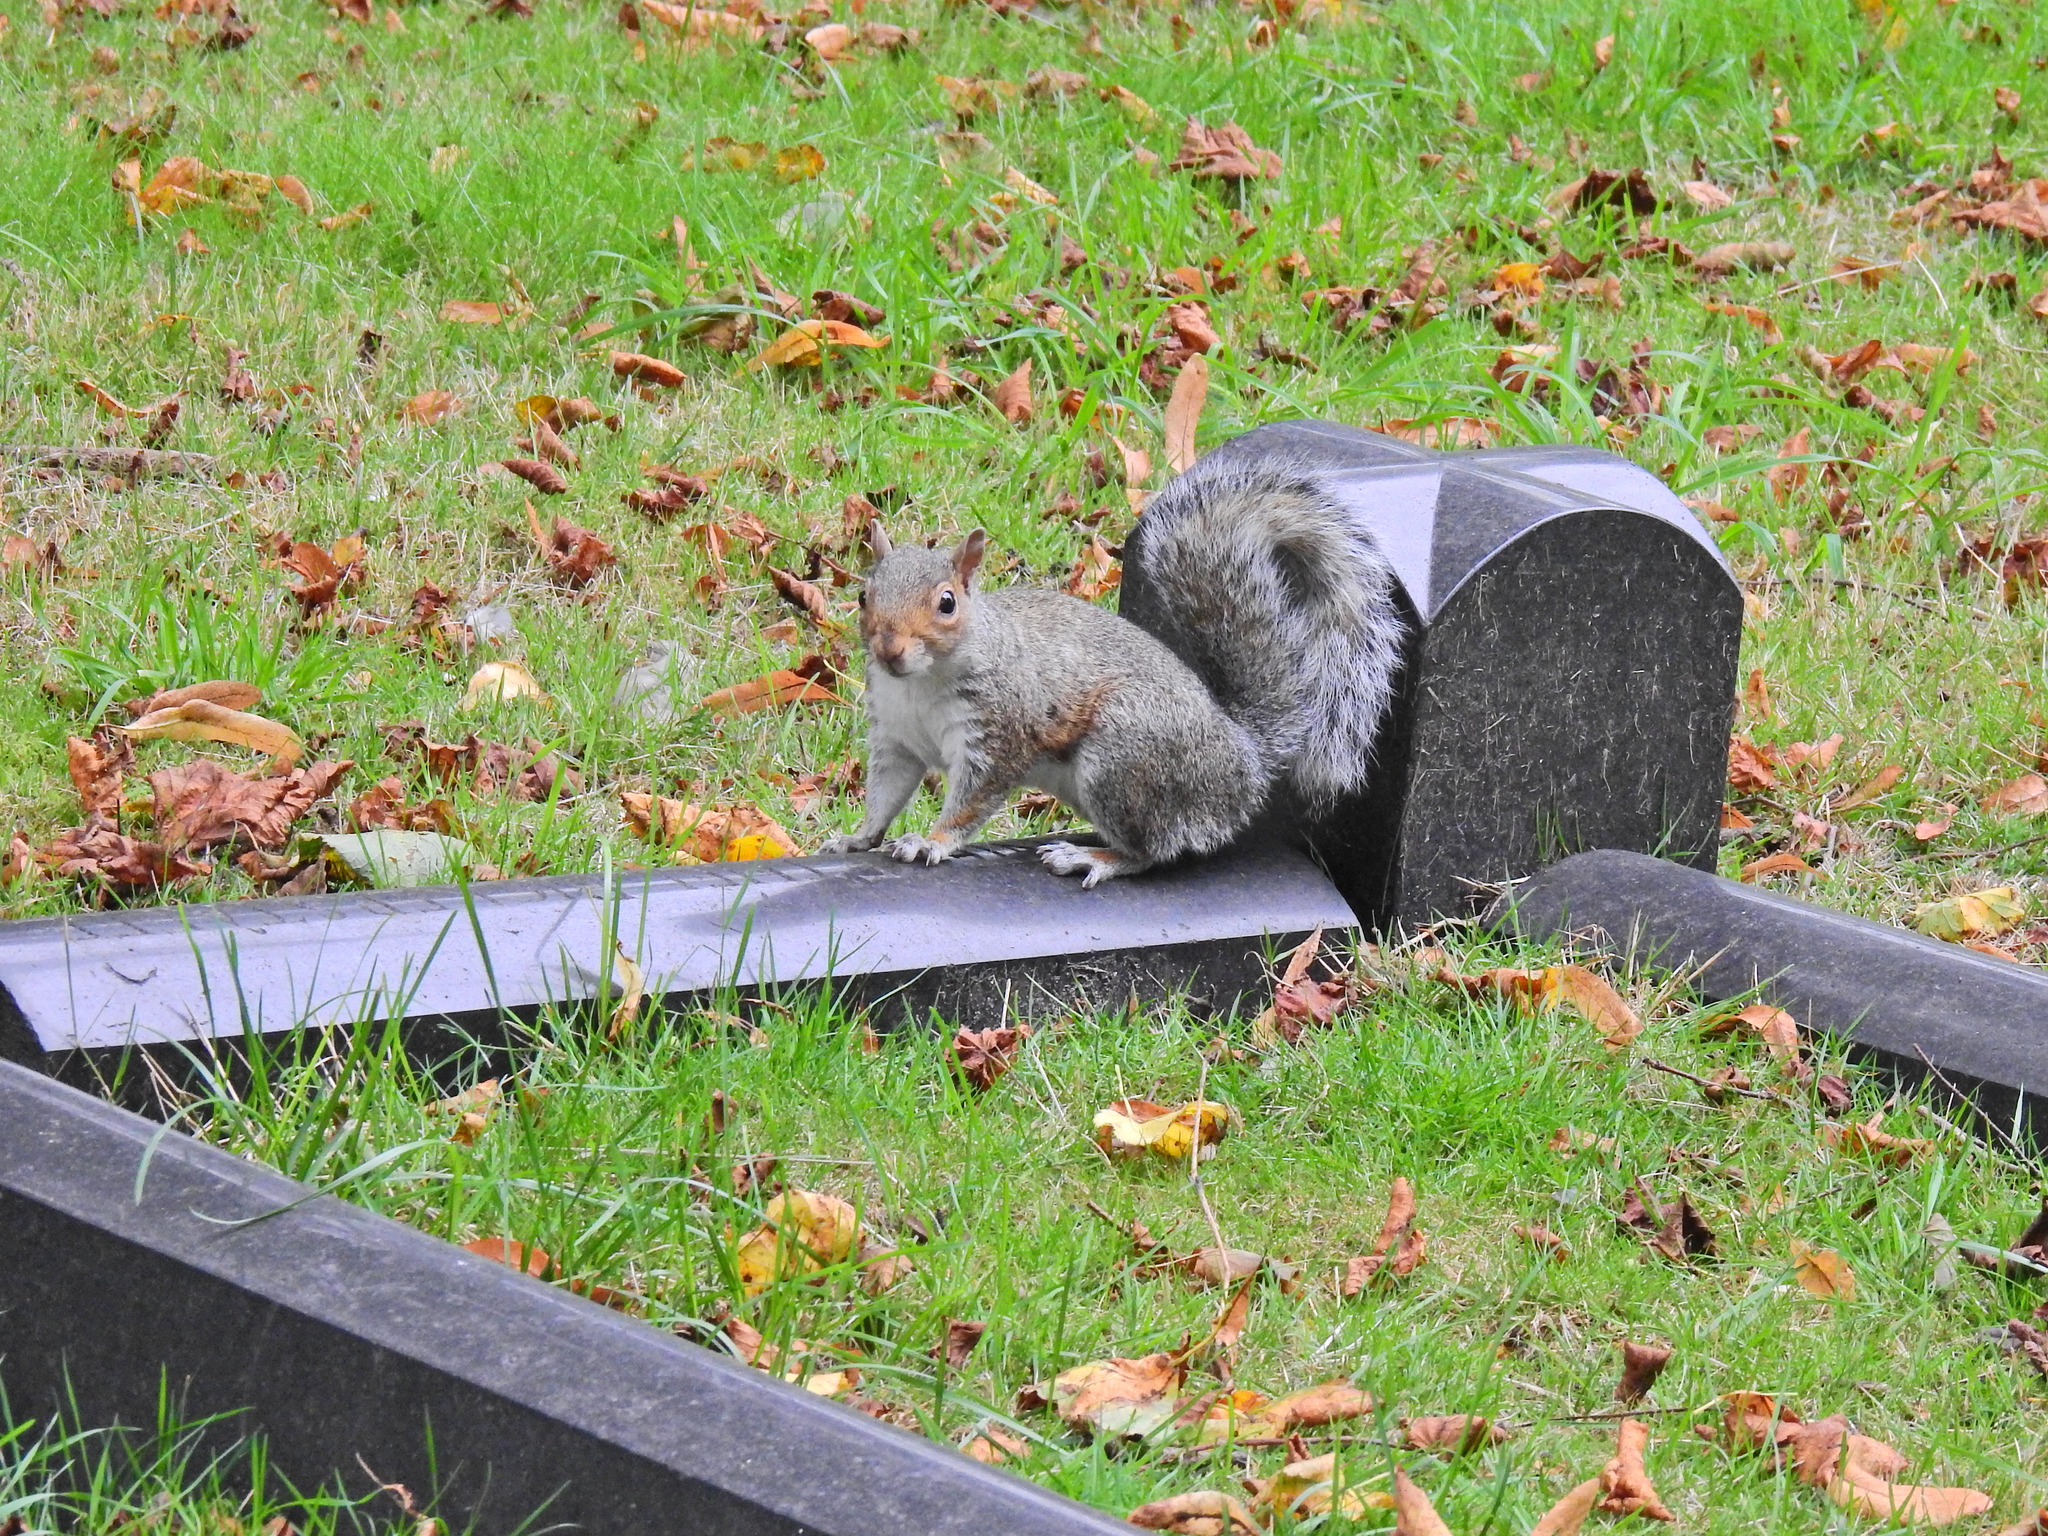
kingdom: Animalia
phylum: Chordata
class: Mammalia
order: Rodentia
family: Sciuridae
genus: Sciurus
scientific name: Sciurus carolinensis
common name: Eastern gray squirrel
